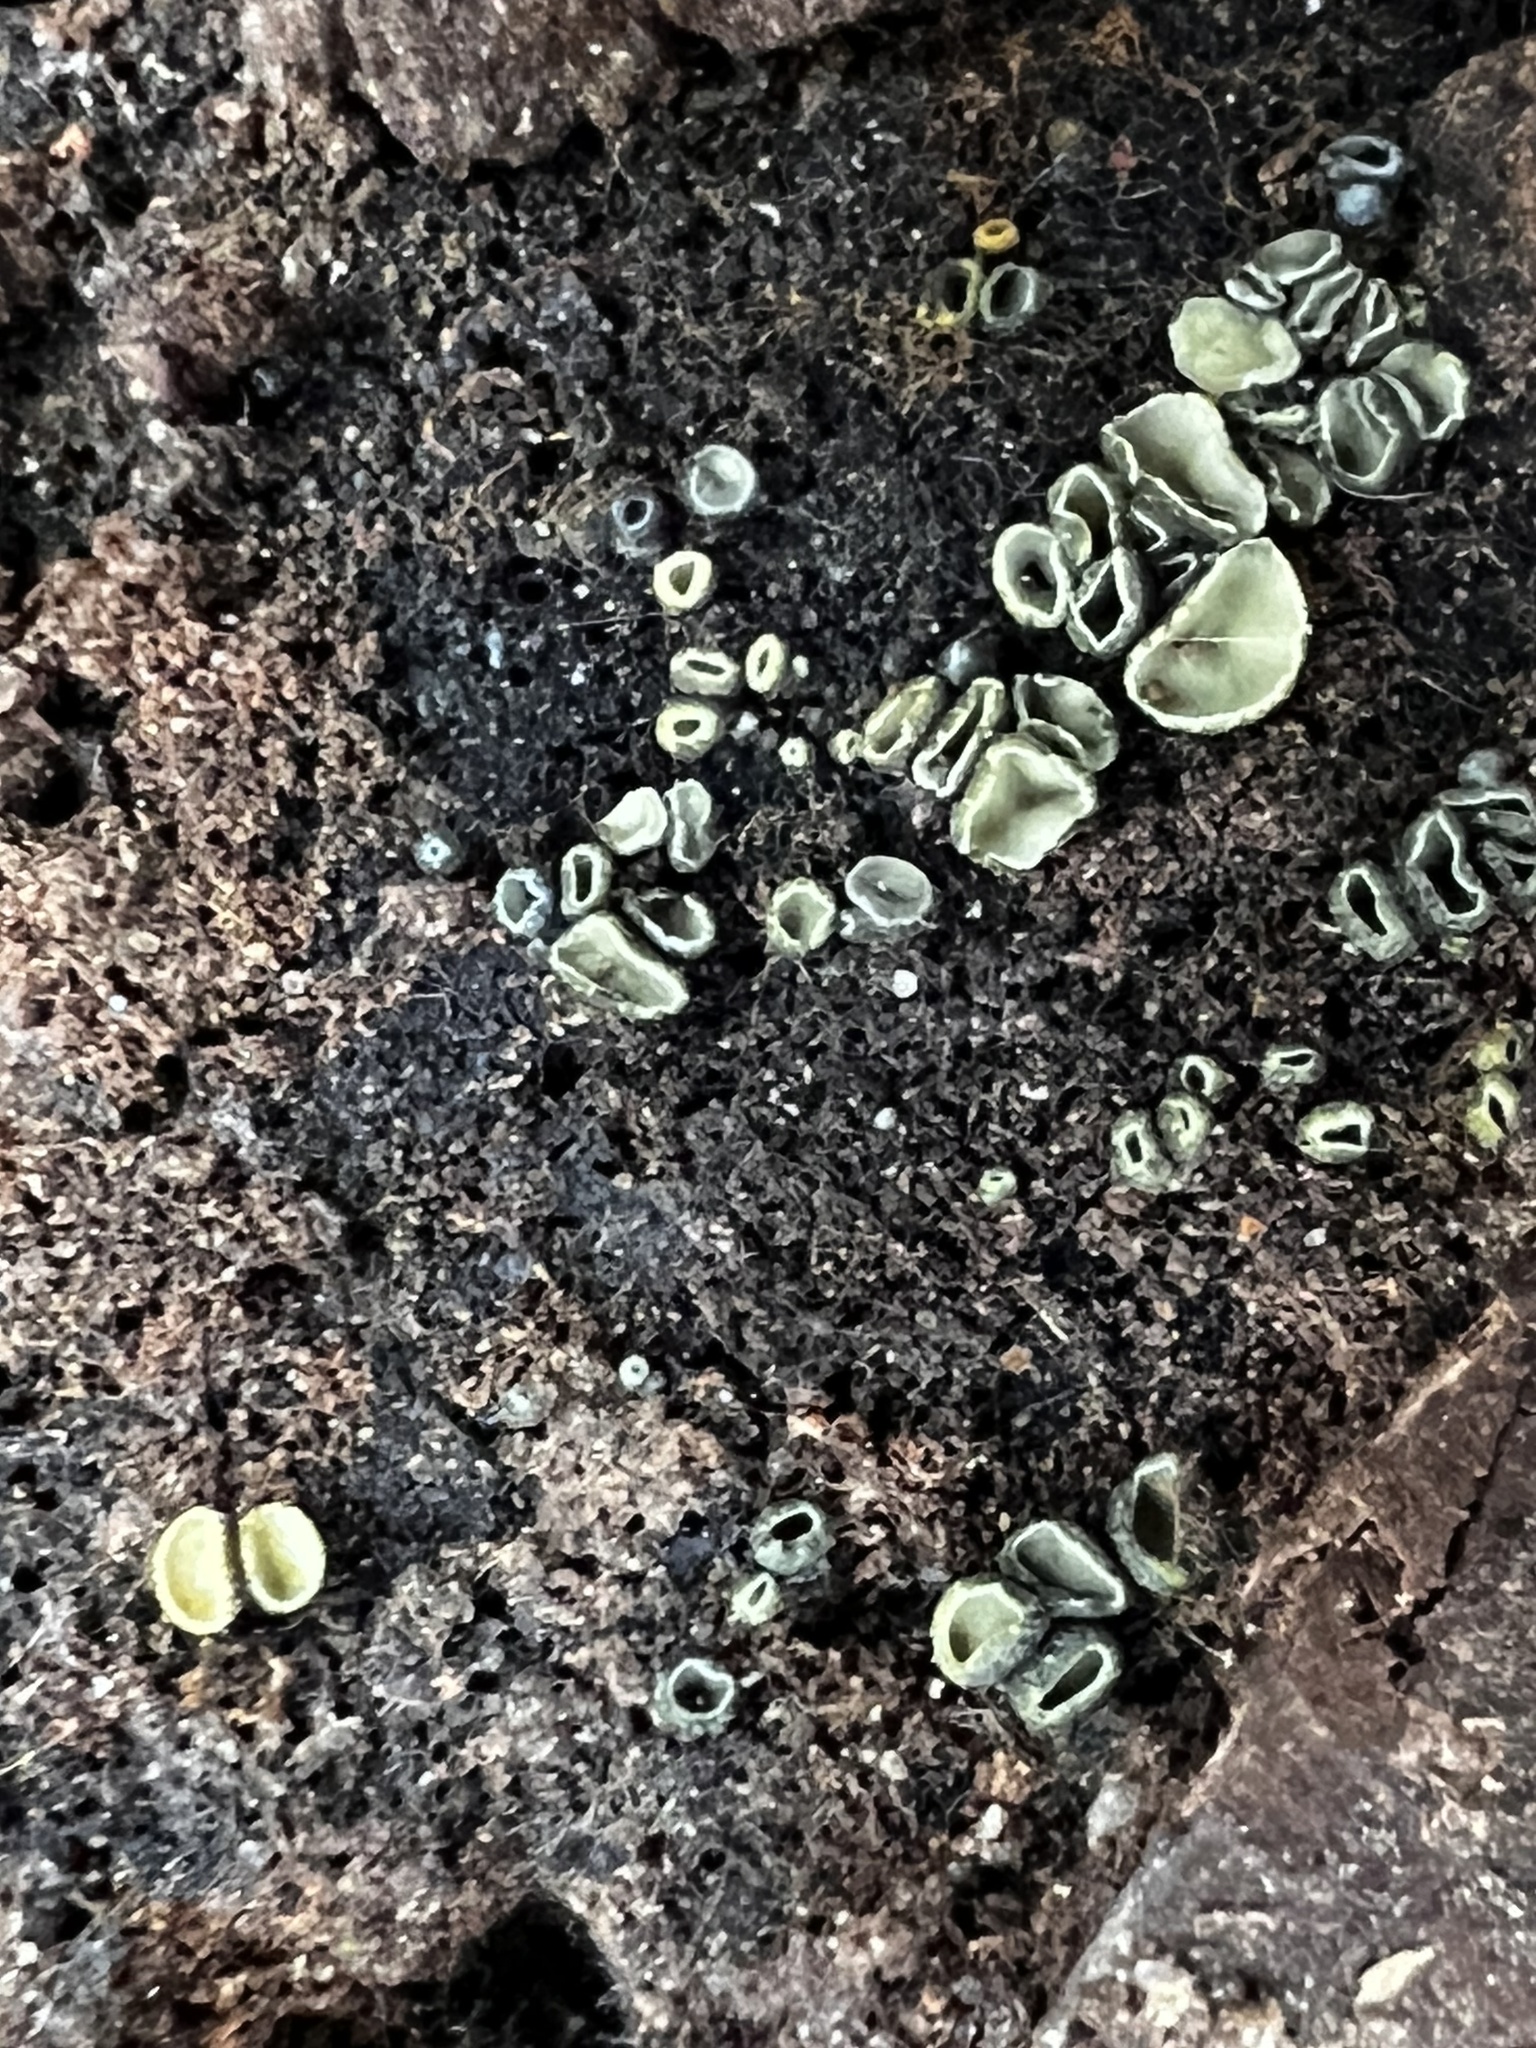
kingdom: Fungi
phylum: Ascomycota
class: Leotiomycetes
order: Helotiales
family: Chlorospleniaceae
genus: Chlorosplenium
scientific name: Chlorosplenium chlora
